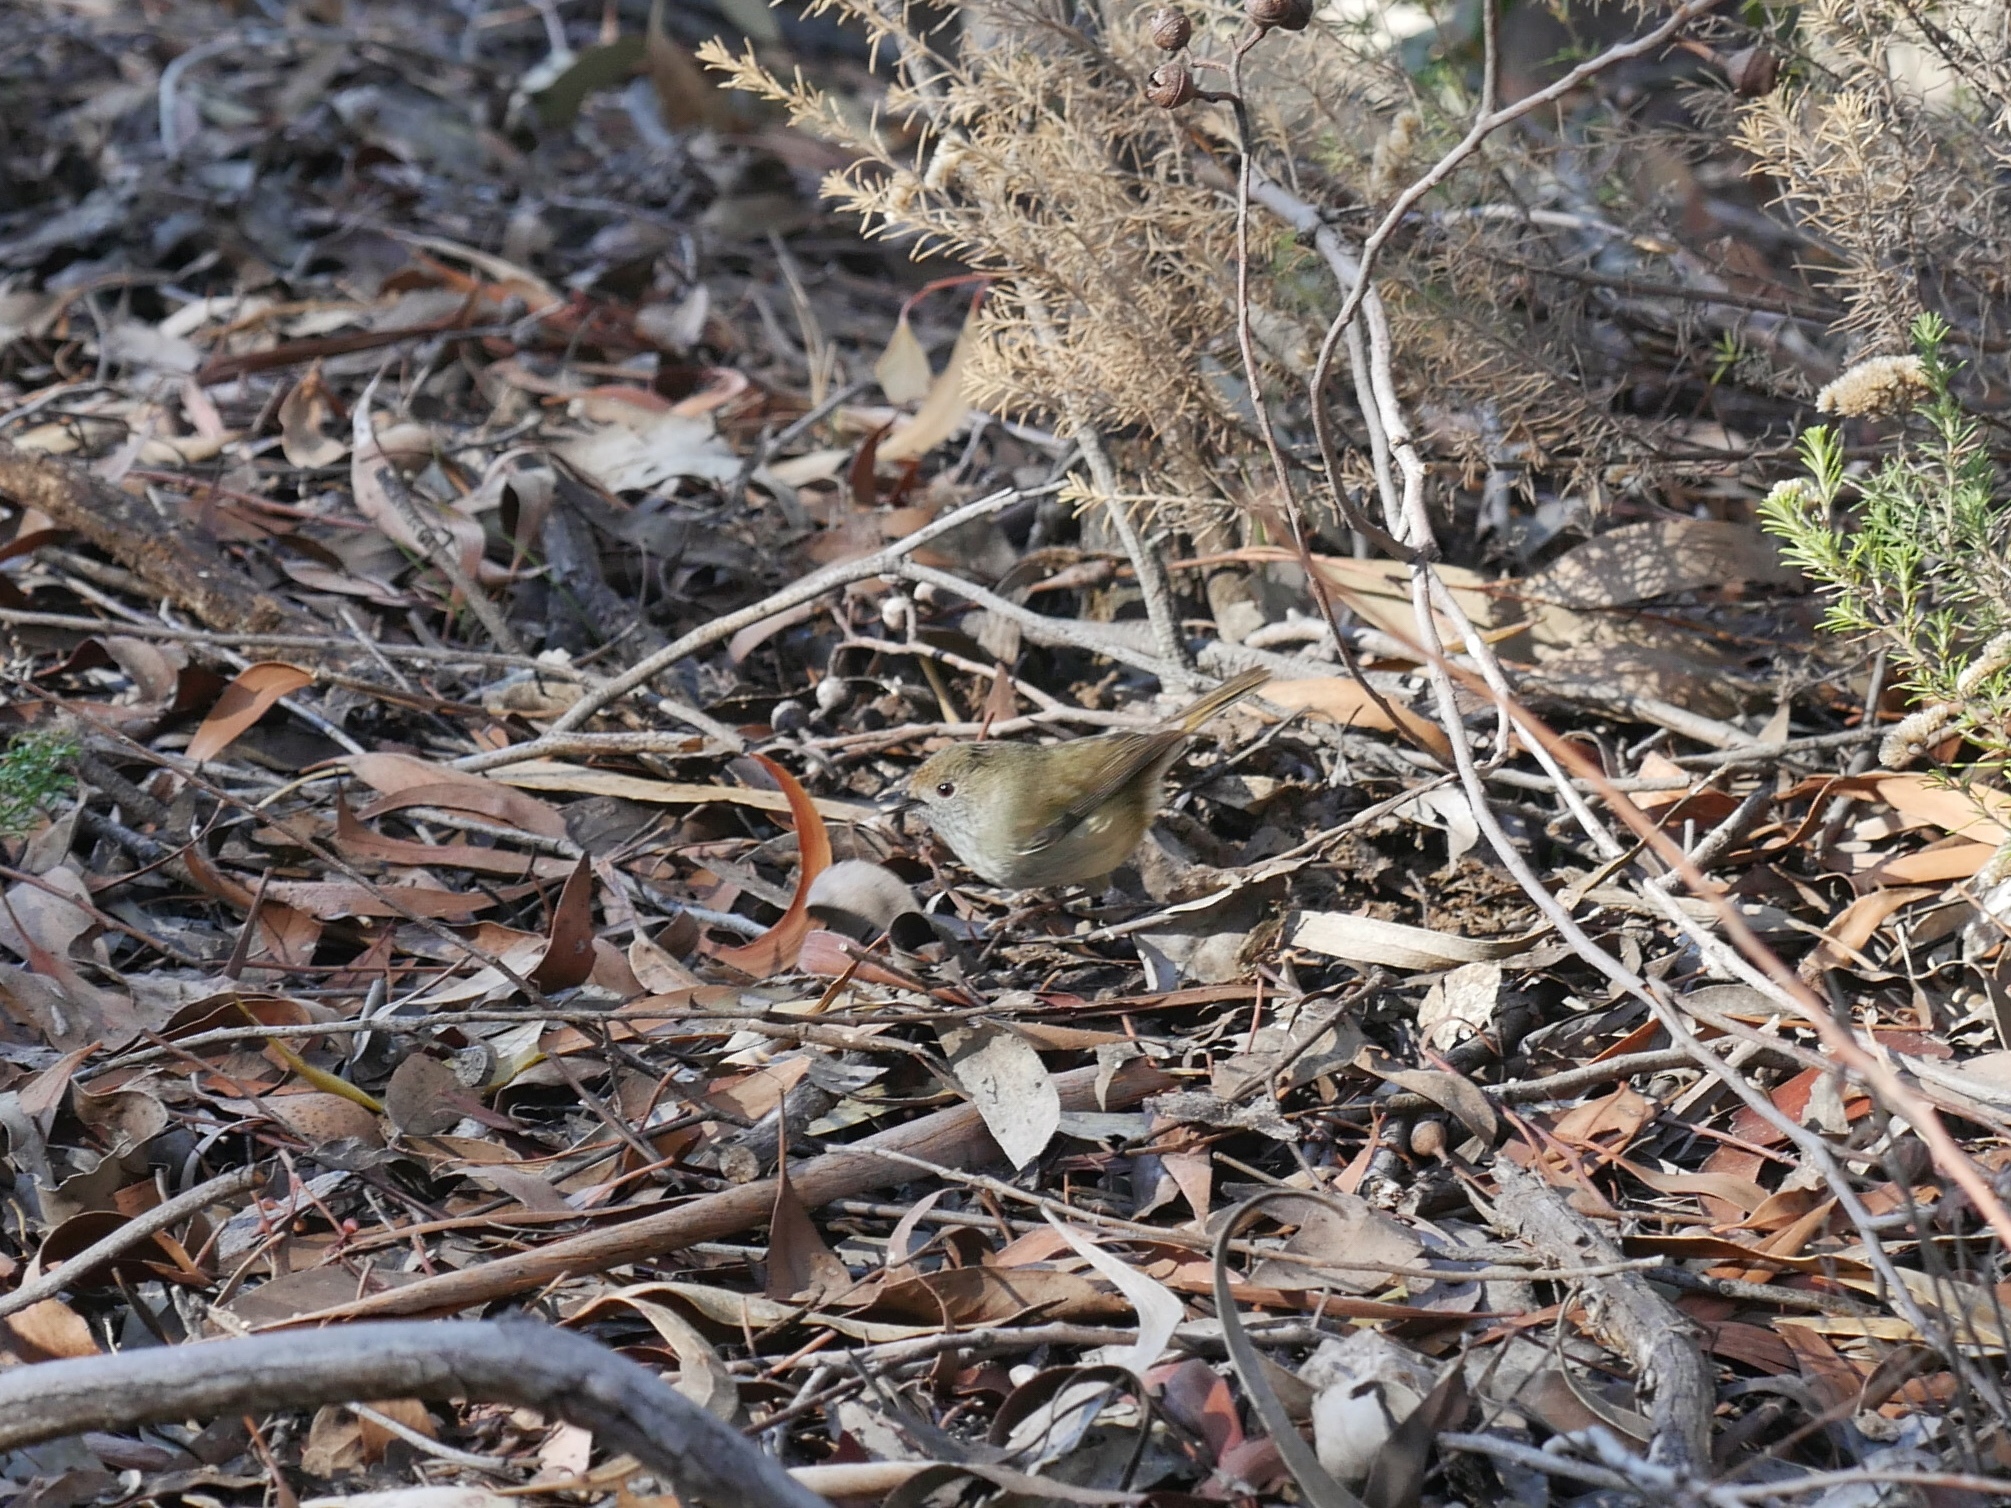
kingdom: Animalia
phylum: Chordata
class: Aves
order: Passeriformes
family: Acanthizidae
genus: Acanthiza
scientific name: Acanthiza pusilla
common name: Brown thornbill
